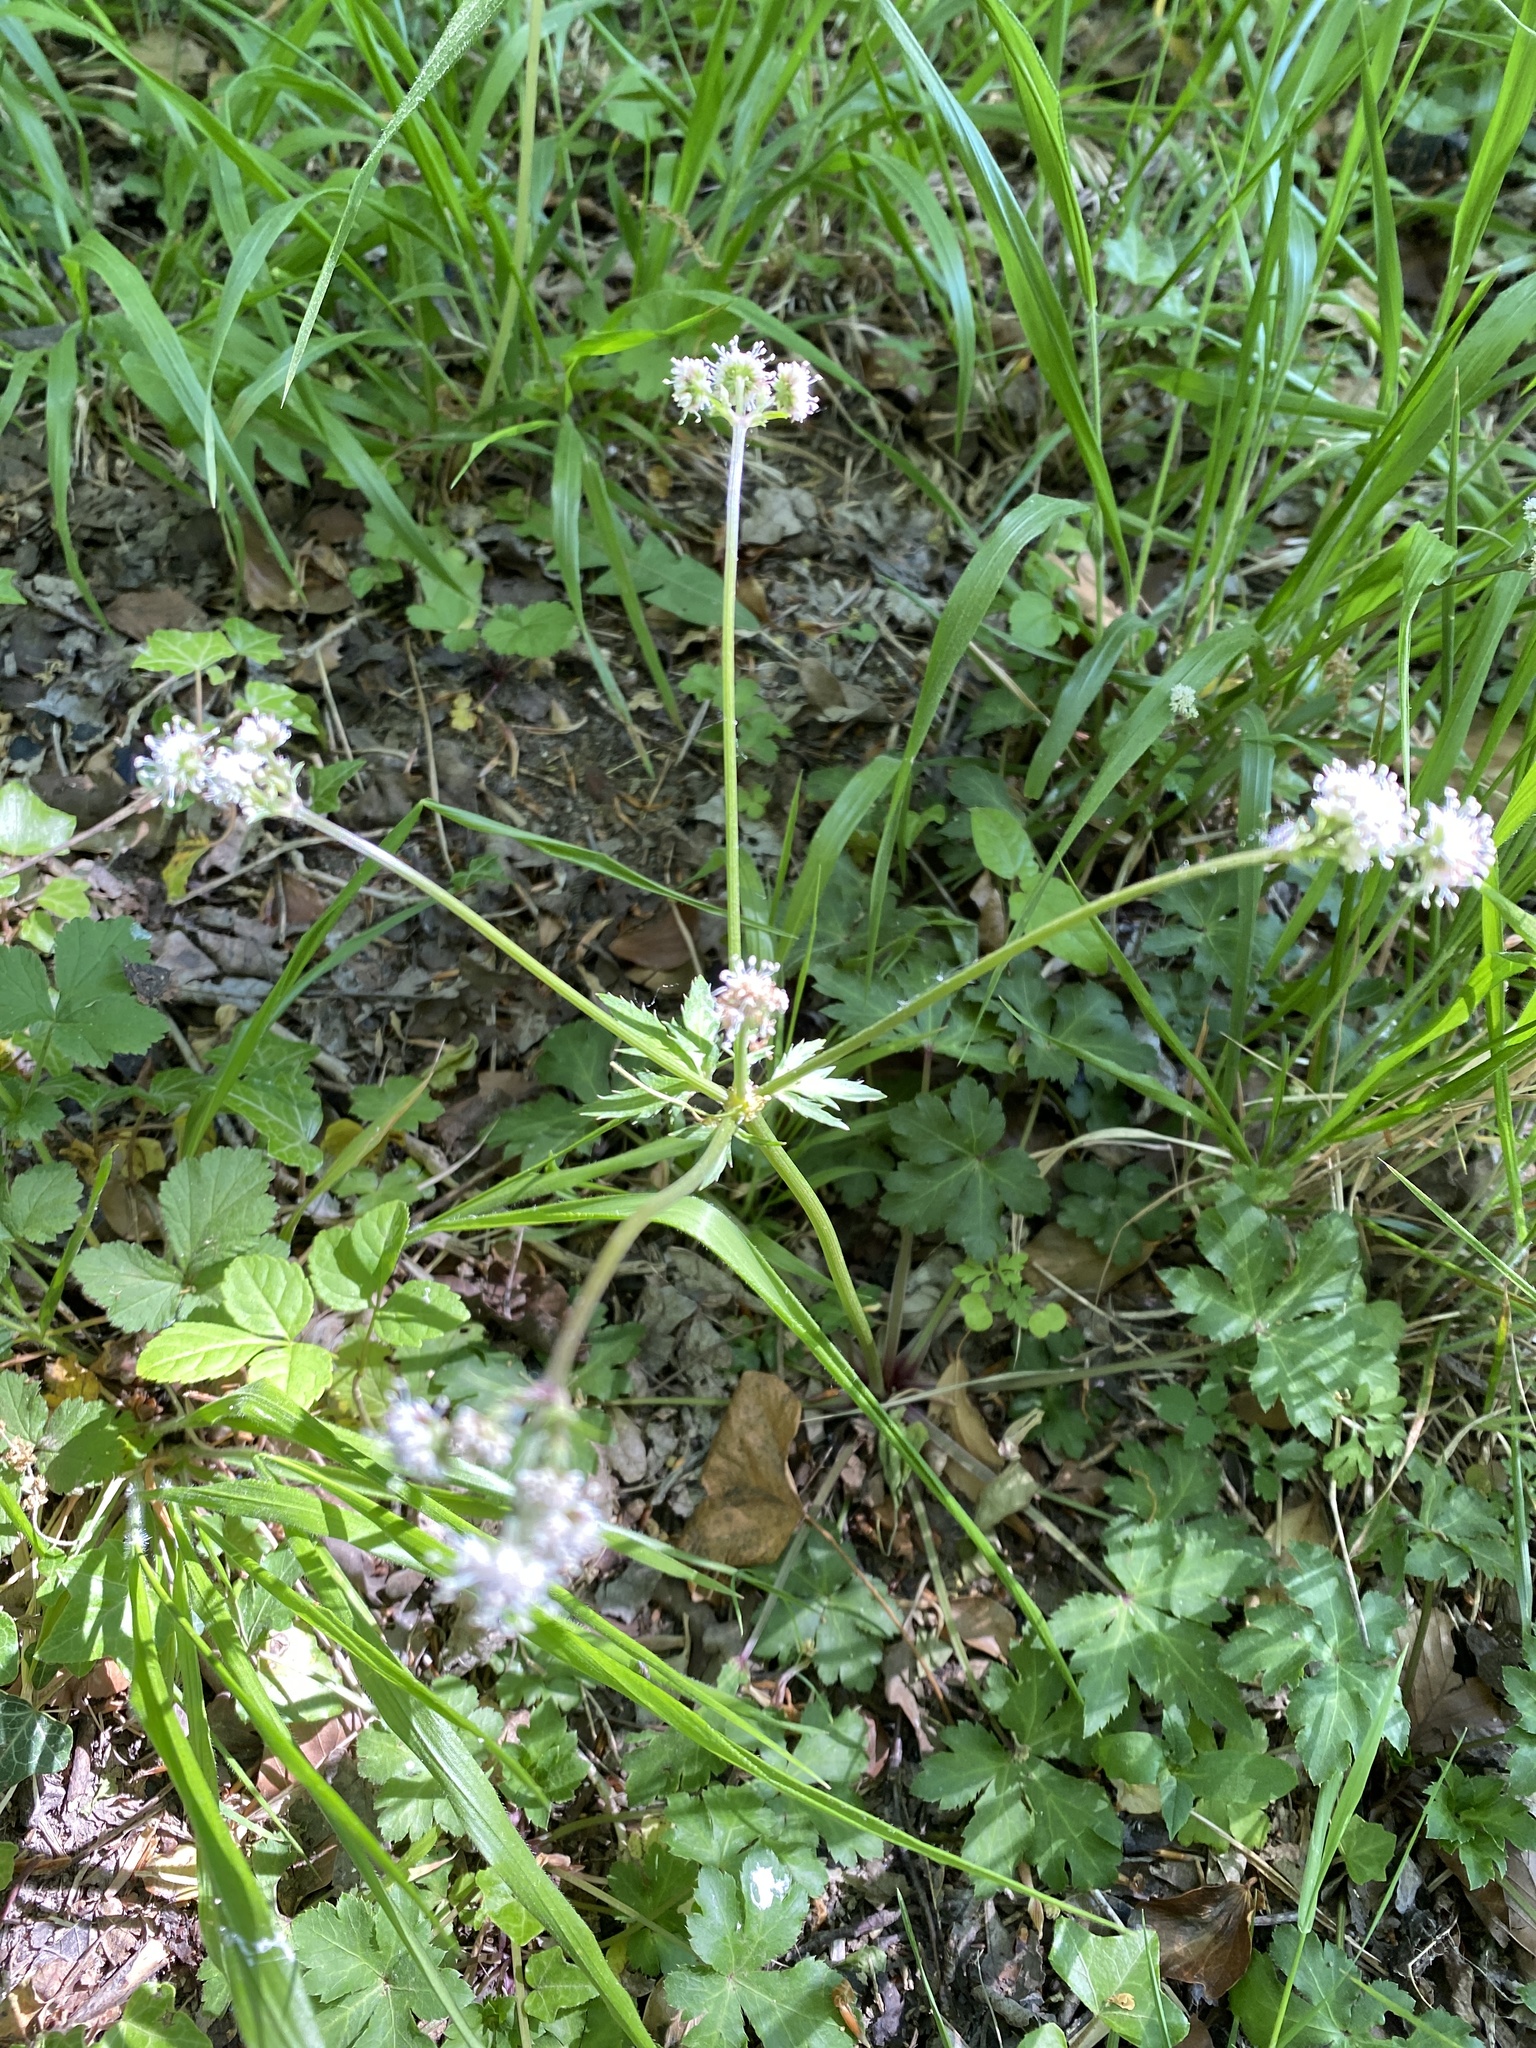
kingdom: Plantae
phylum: Tracheophyta
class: Magnoliopsida
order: Apiales
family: Apiaceae
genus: Sanicula
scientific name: Sanicula europaea
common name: Sanicle
